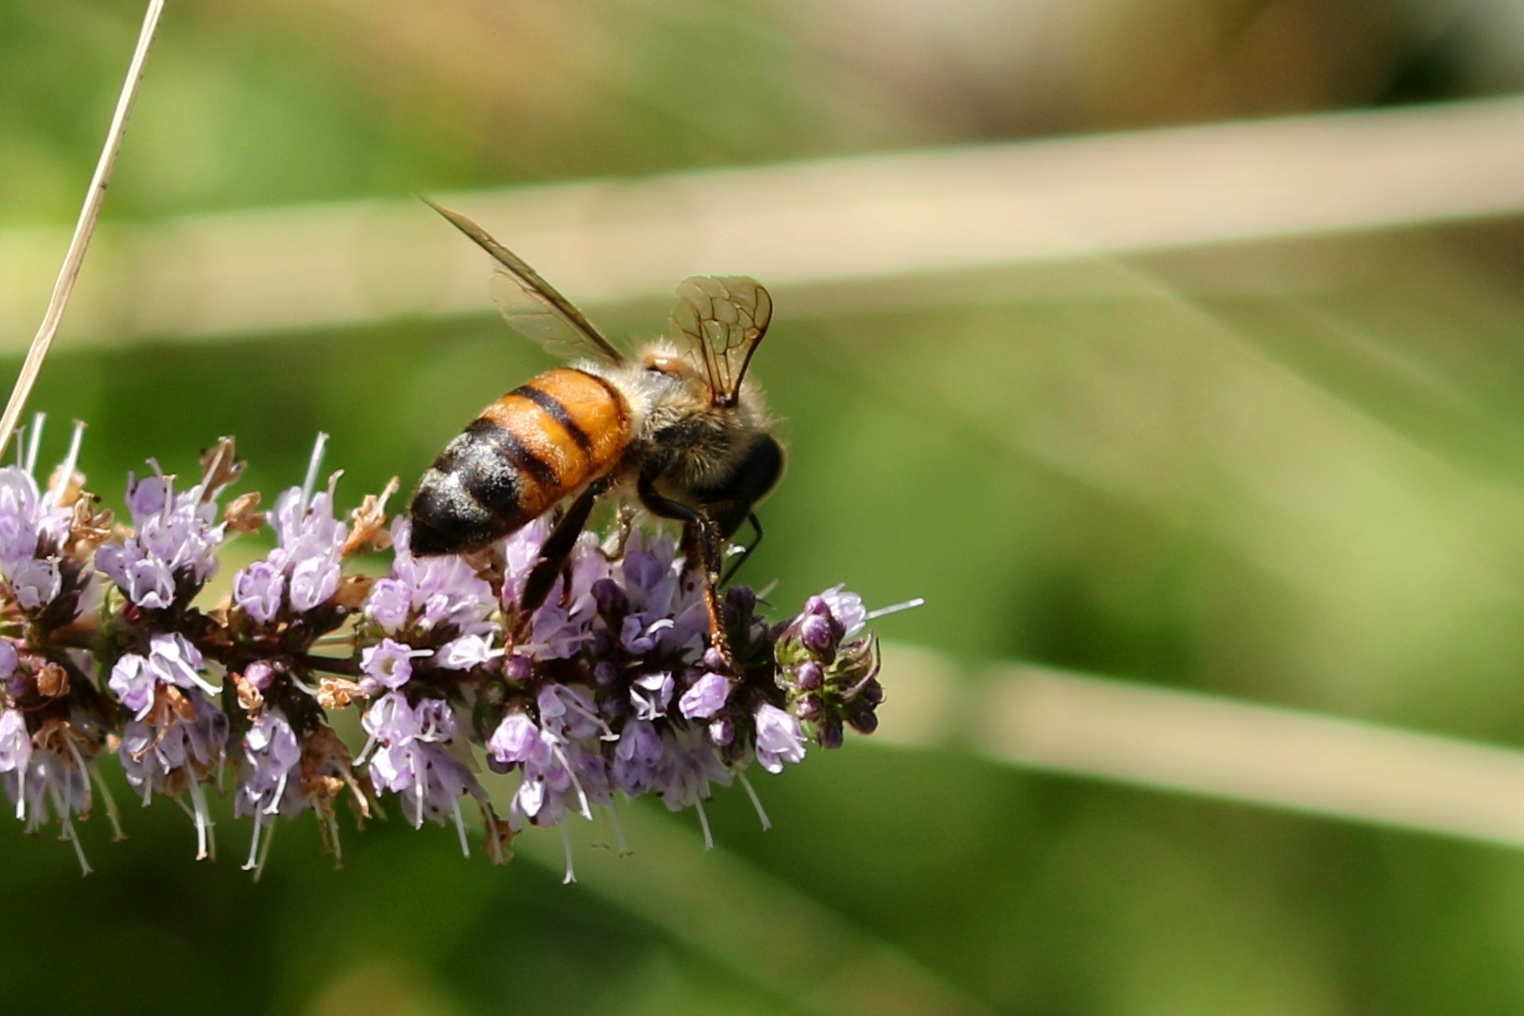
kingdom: Animalia
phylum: Arthropoda
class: Insecta
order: Hymenoptera
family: Apidae
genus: Apis
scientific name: Apis mellifera
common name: Honey bee
